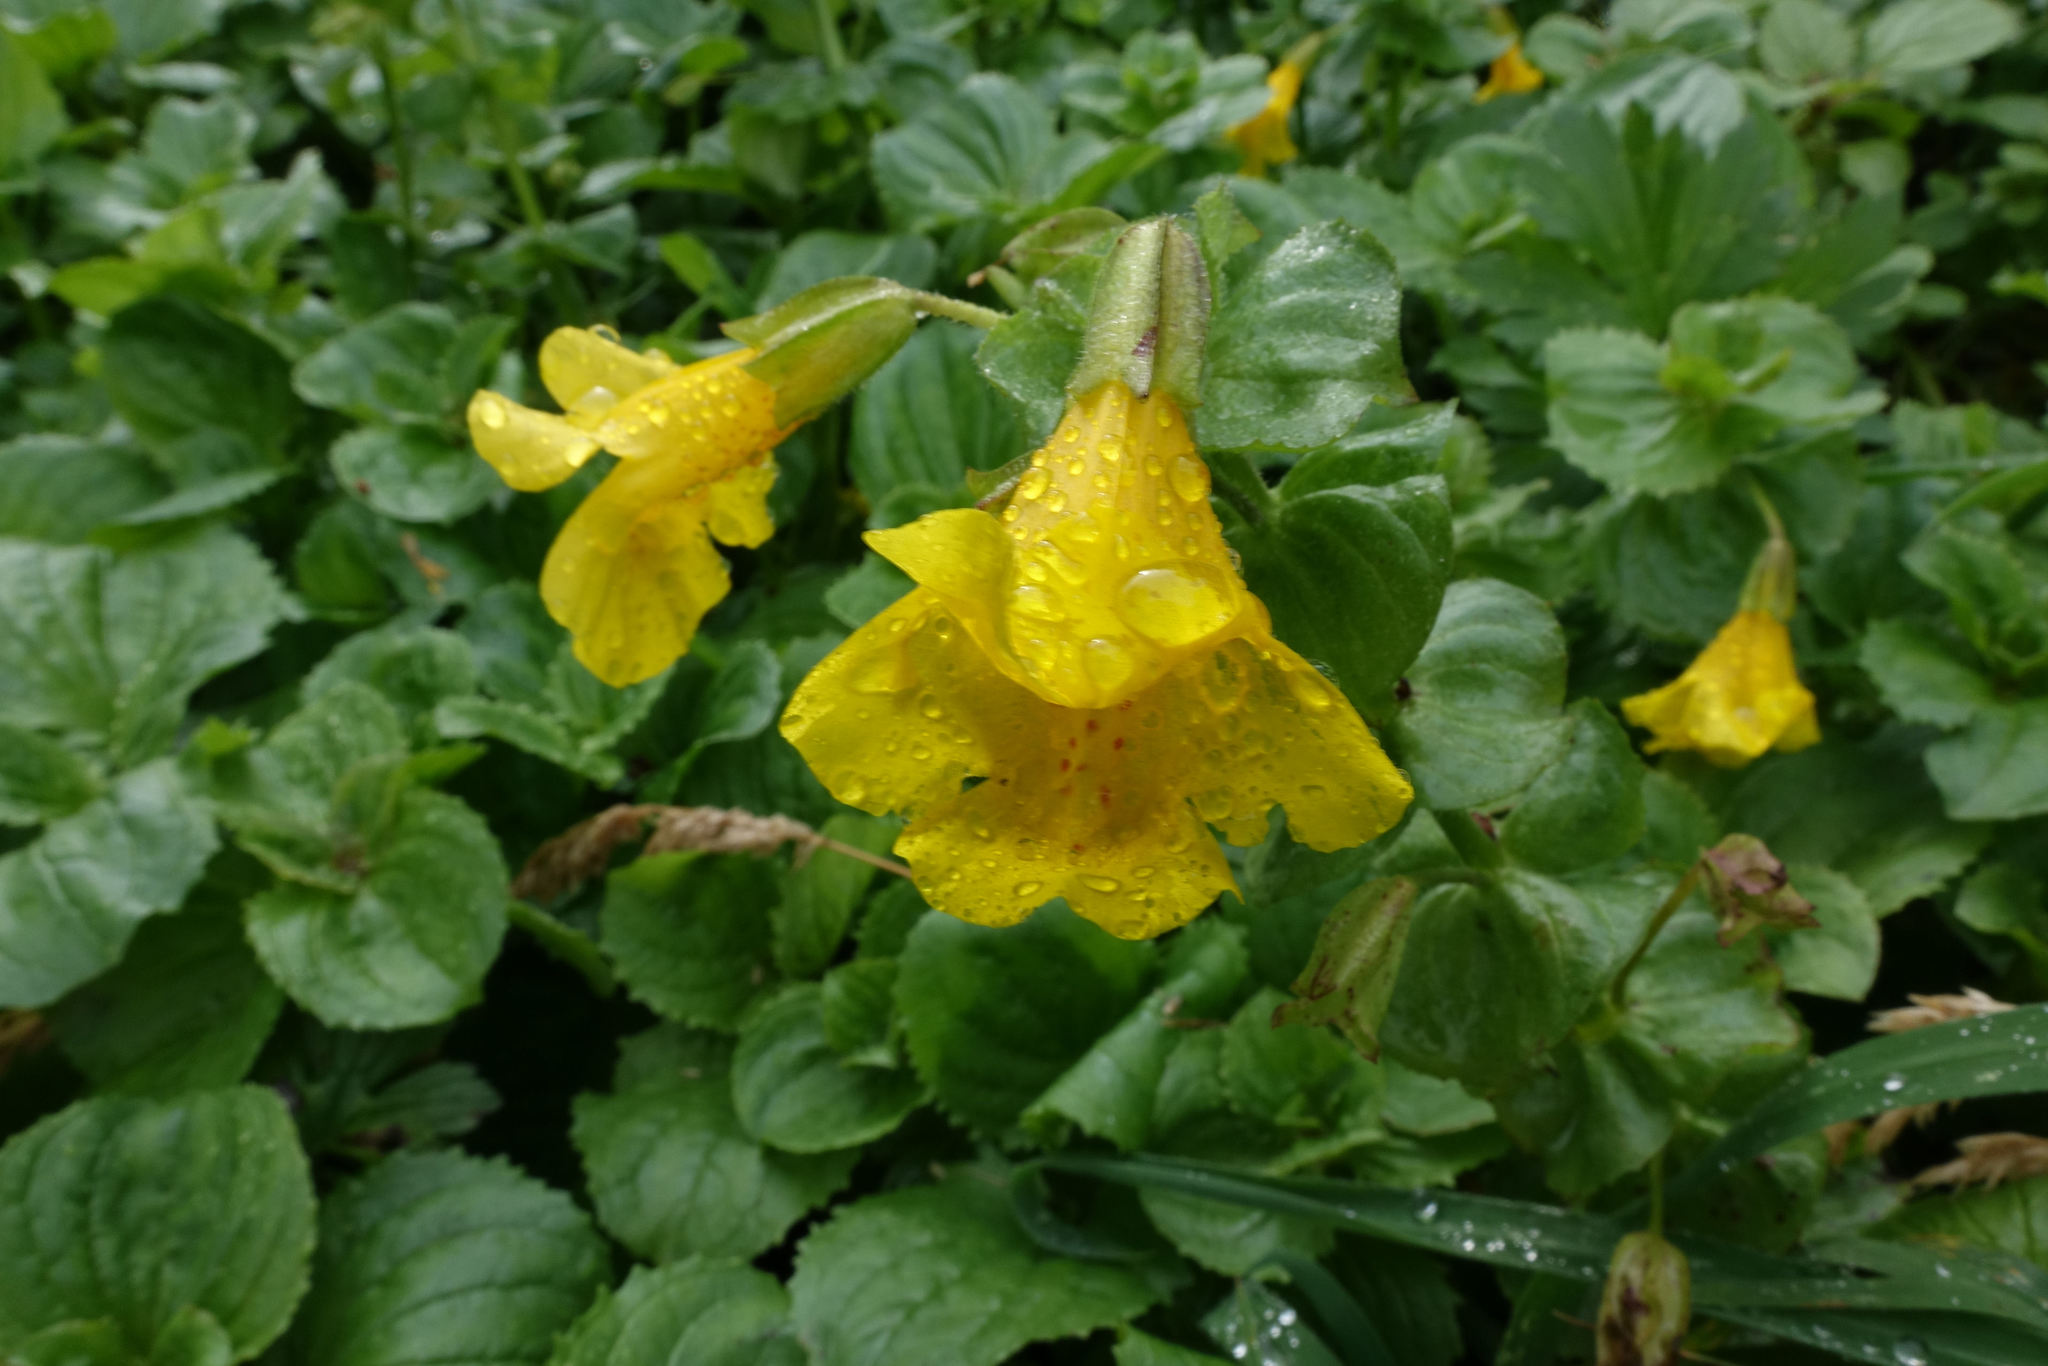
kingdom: Plantae
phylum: Tracheophyta
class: Magnoliopsida
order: Lamiales
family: Phrymaceae
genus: Erythranthe
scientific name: Erythranthe guttata
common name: Monkeyflower
